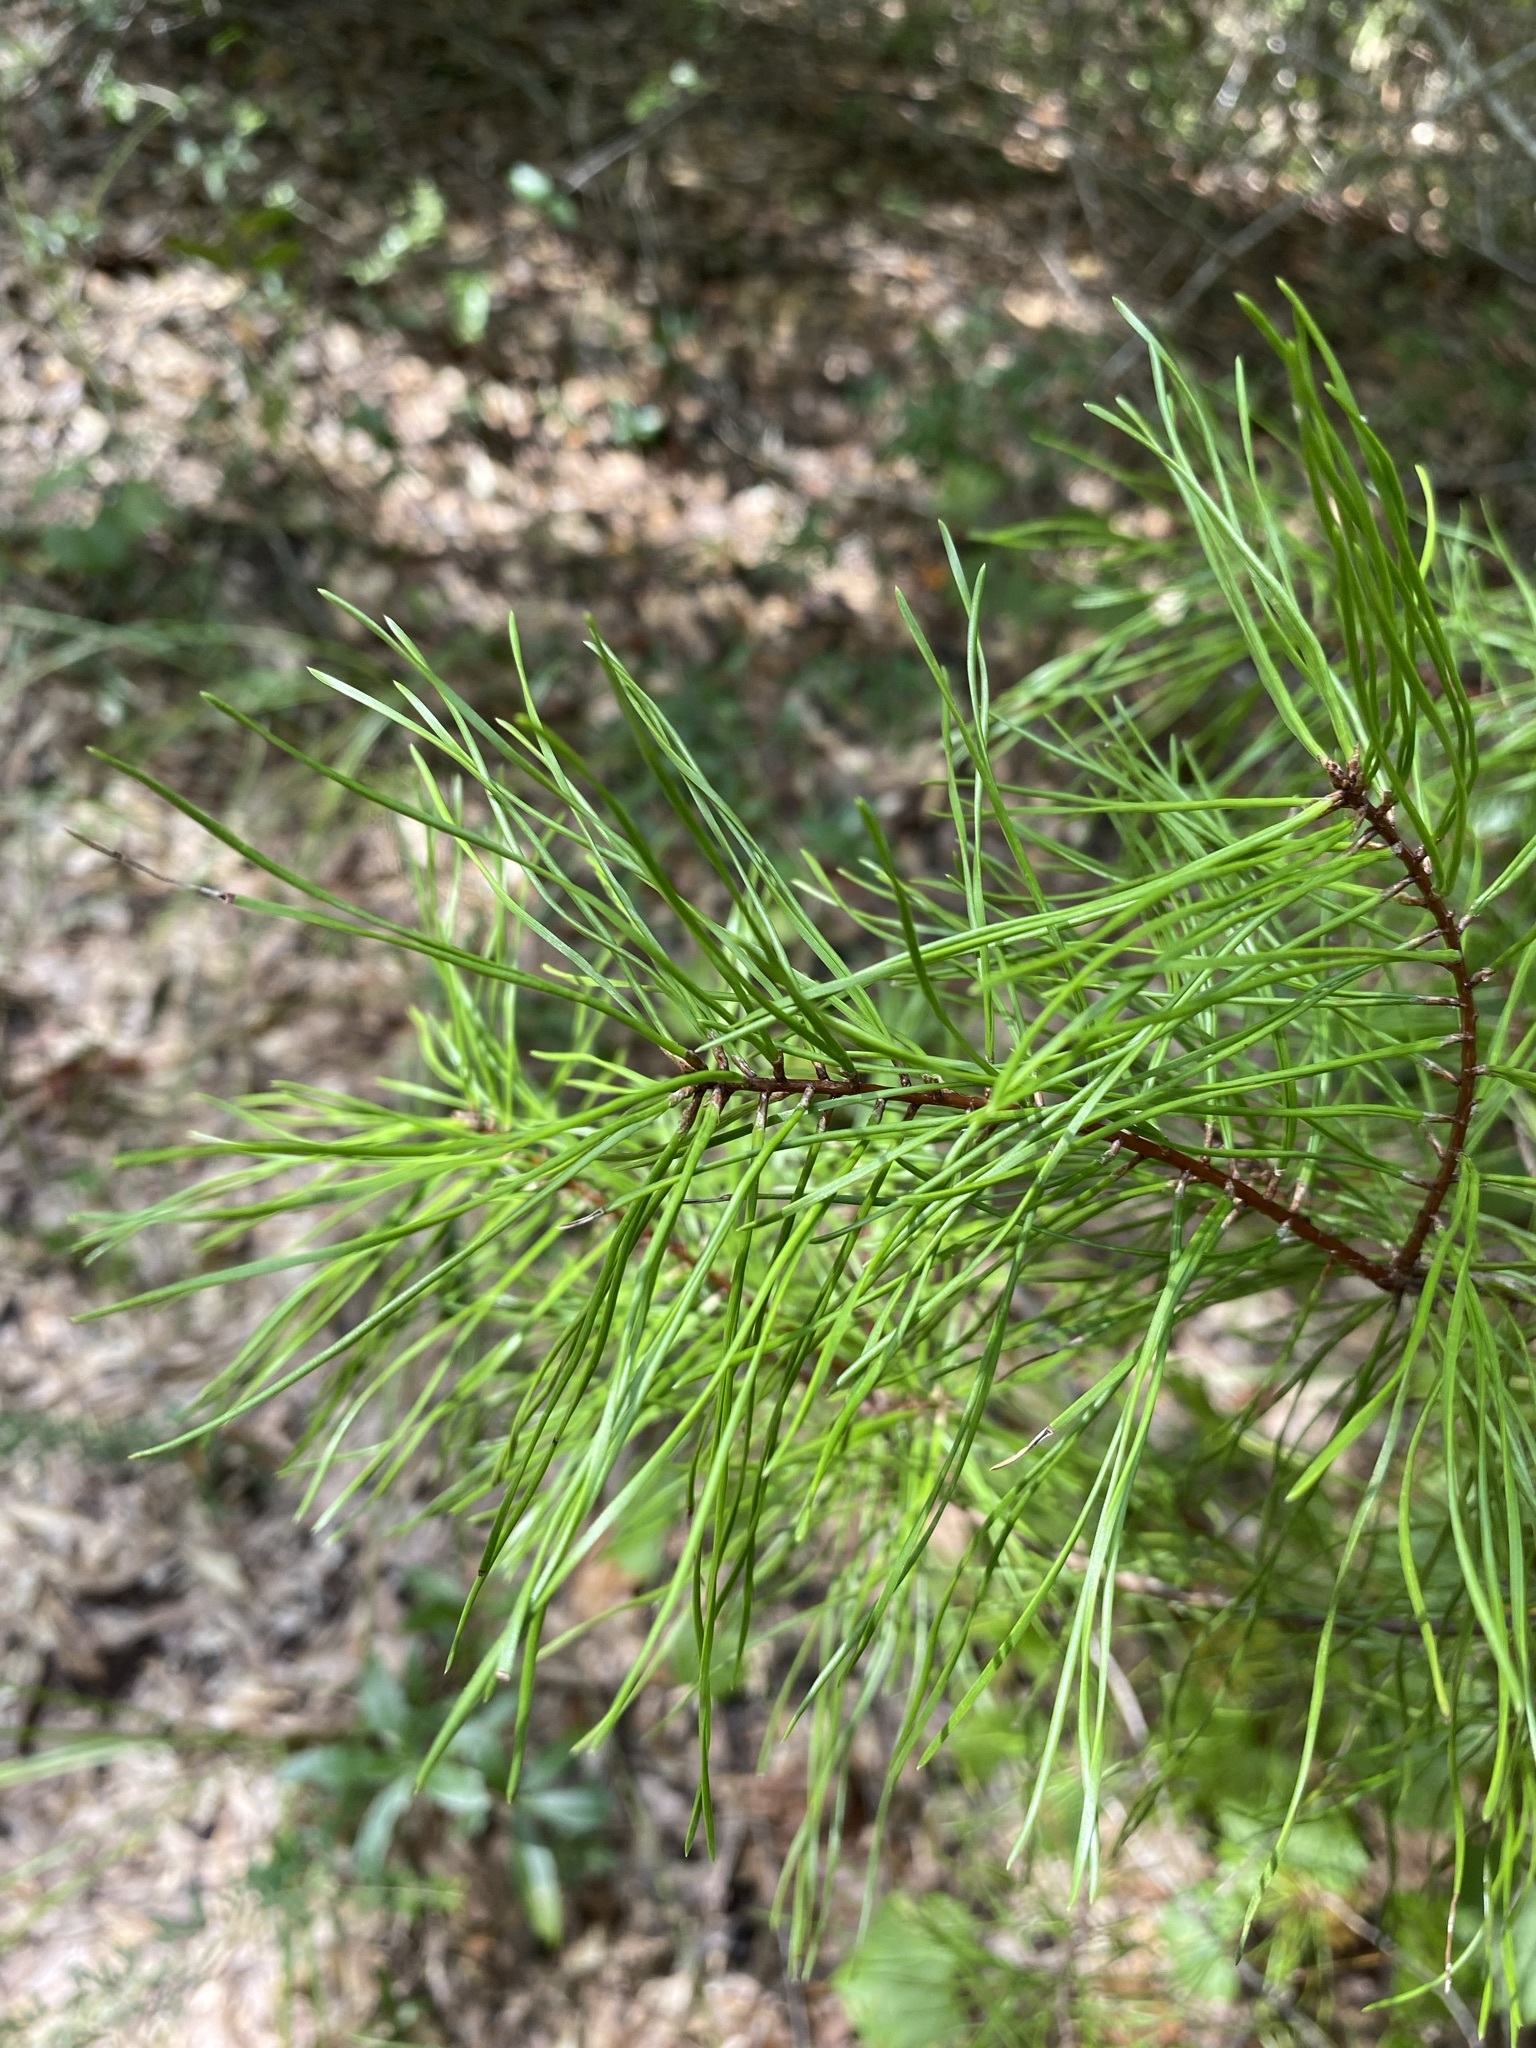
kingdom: Plantae
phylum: Tracheophyta
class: Pinopsida
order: Pinales
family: Pinaceae
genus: Pinus
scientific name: Pinus clausa
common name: Sand pine
